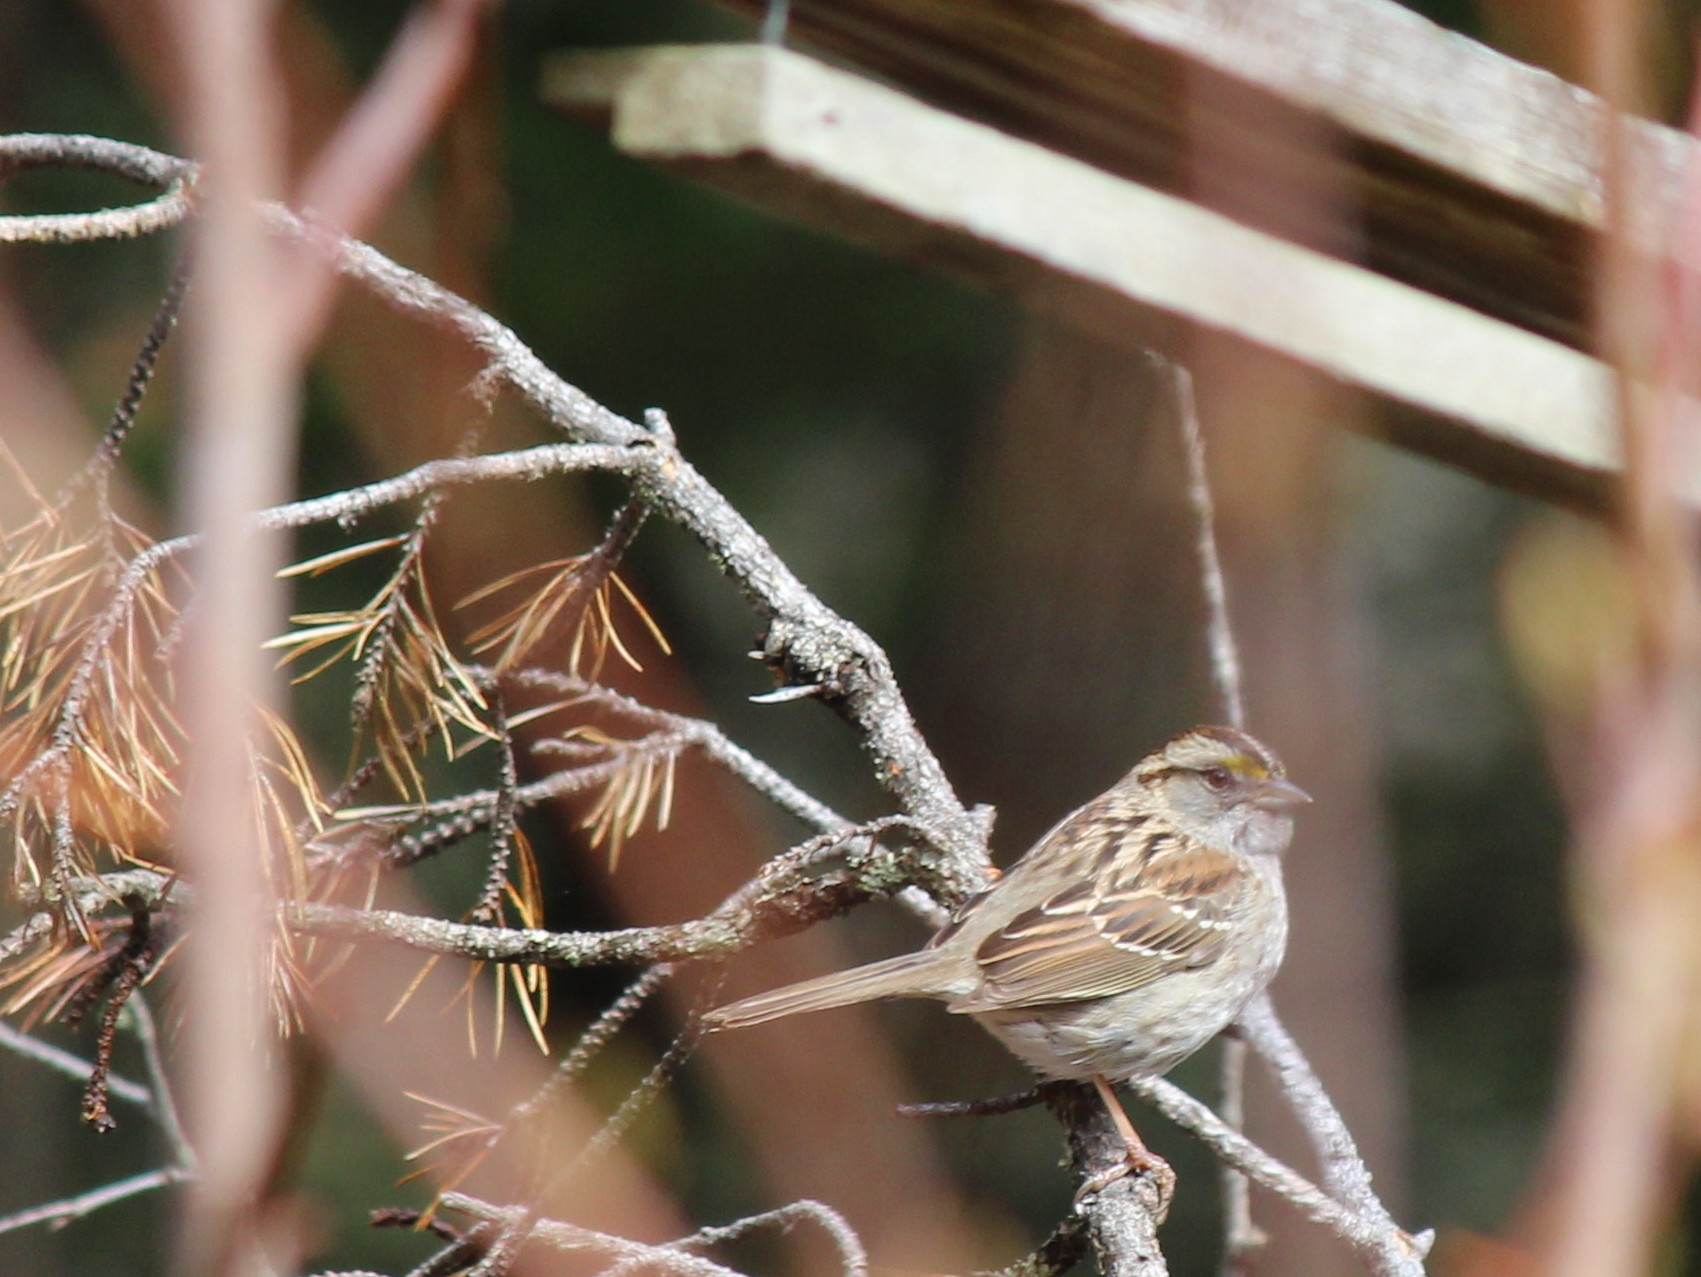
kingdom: Animalia
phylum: Chordata
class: Aves
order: Passeriformes
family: Passerellidae
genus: Zonotrichia
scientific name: Zonotrichia albicollis
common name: White-throated sparrow
